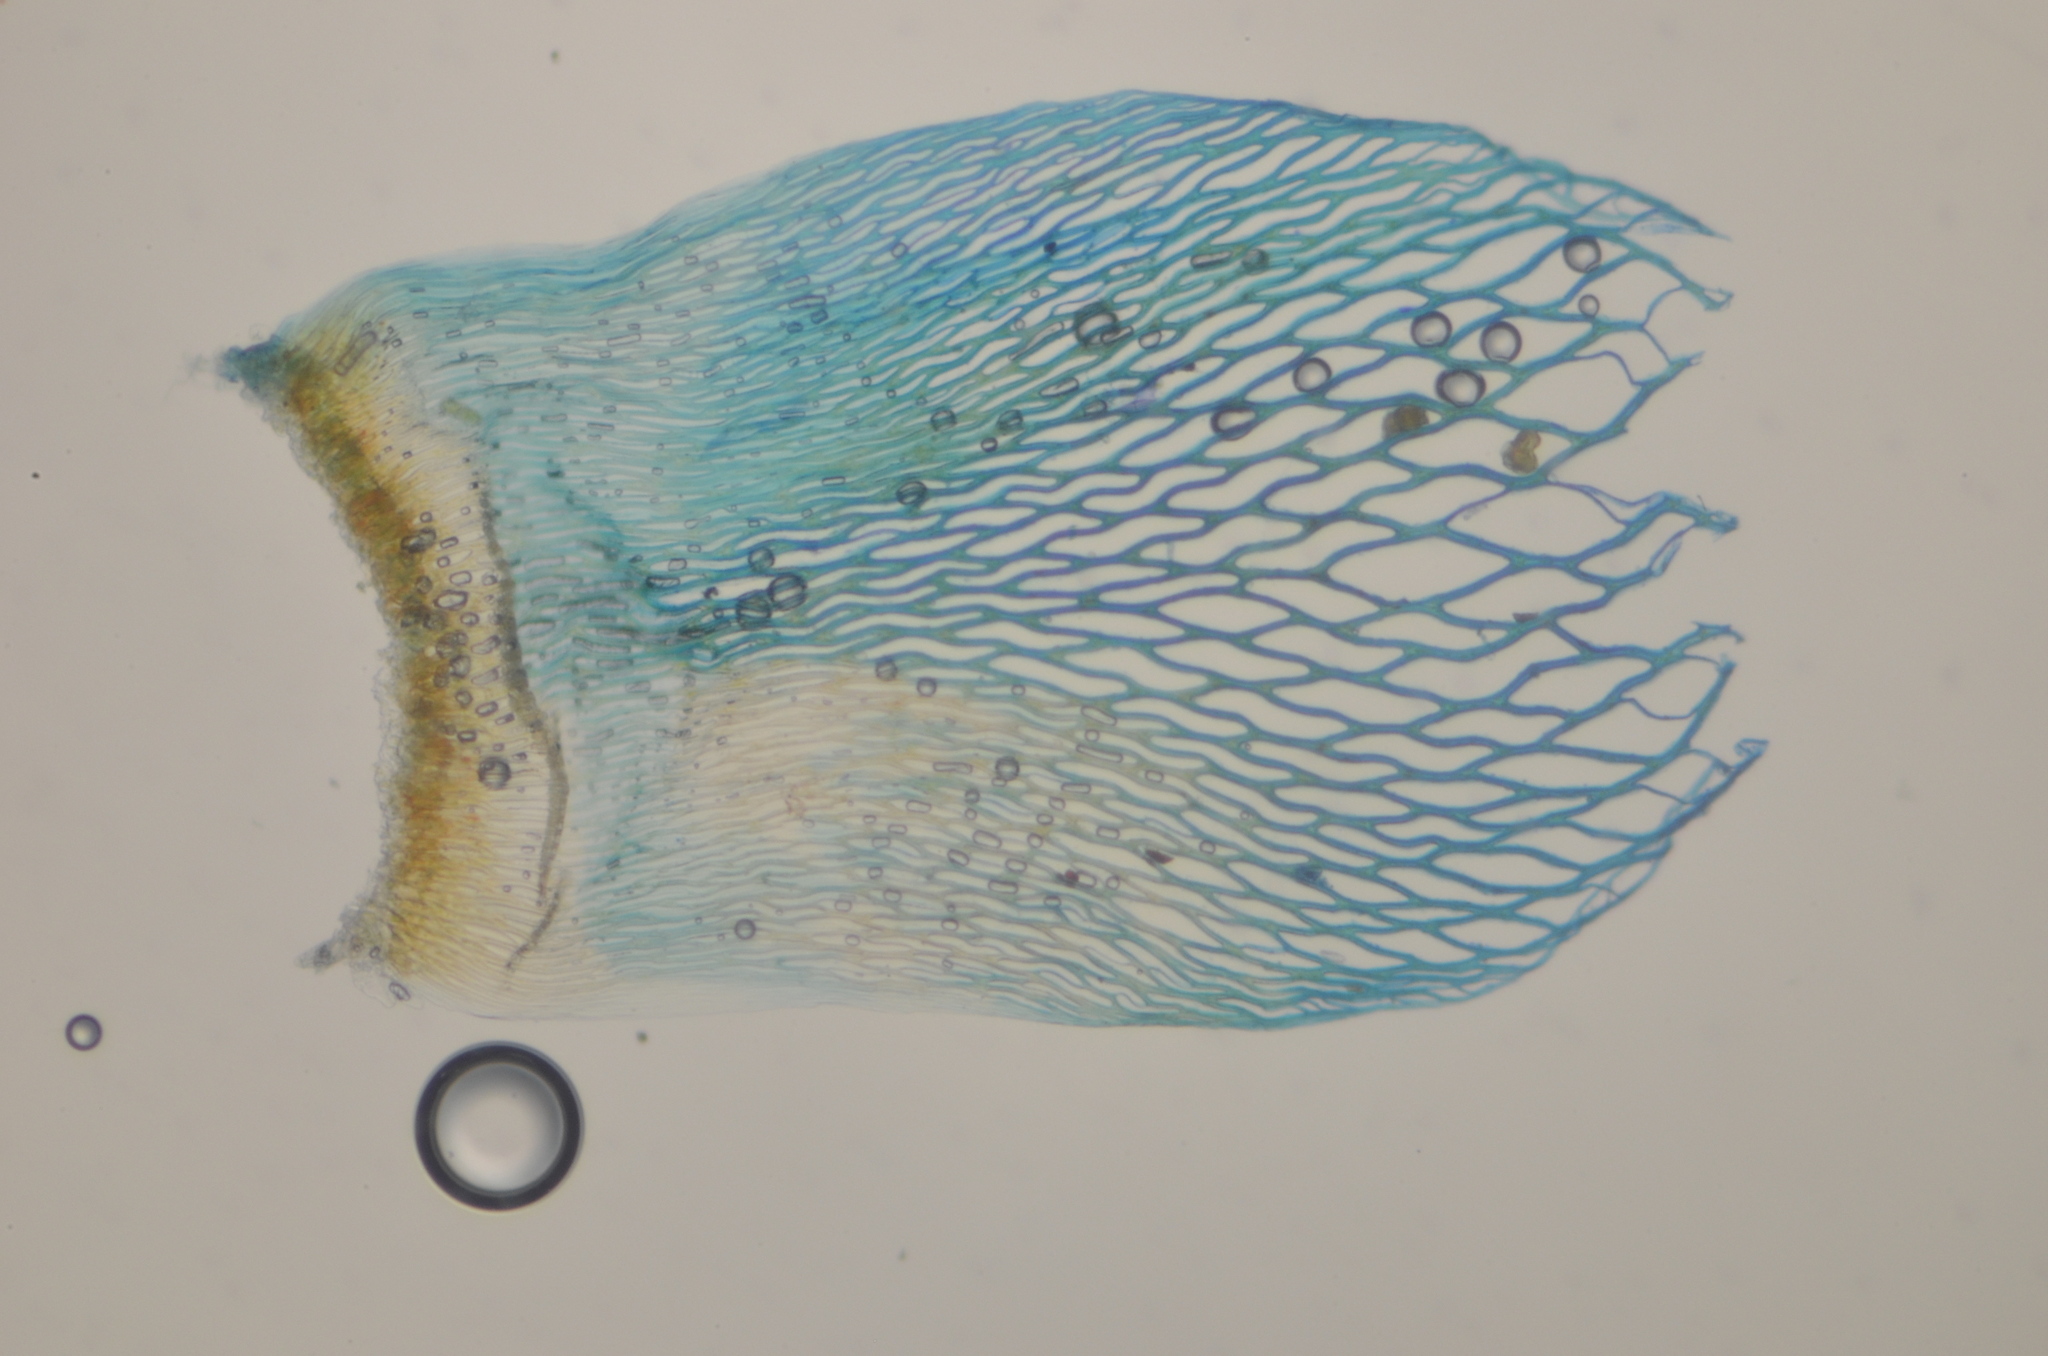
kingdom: Plantae
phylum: Bryophyta
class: Sphagnopsida
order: Sphagnales
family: Sphagnaceae
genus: Sphagnum
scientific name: Sphagnum lindbergii
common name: Lindberg's peat moss
